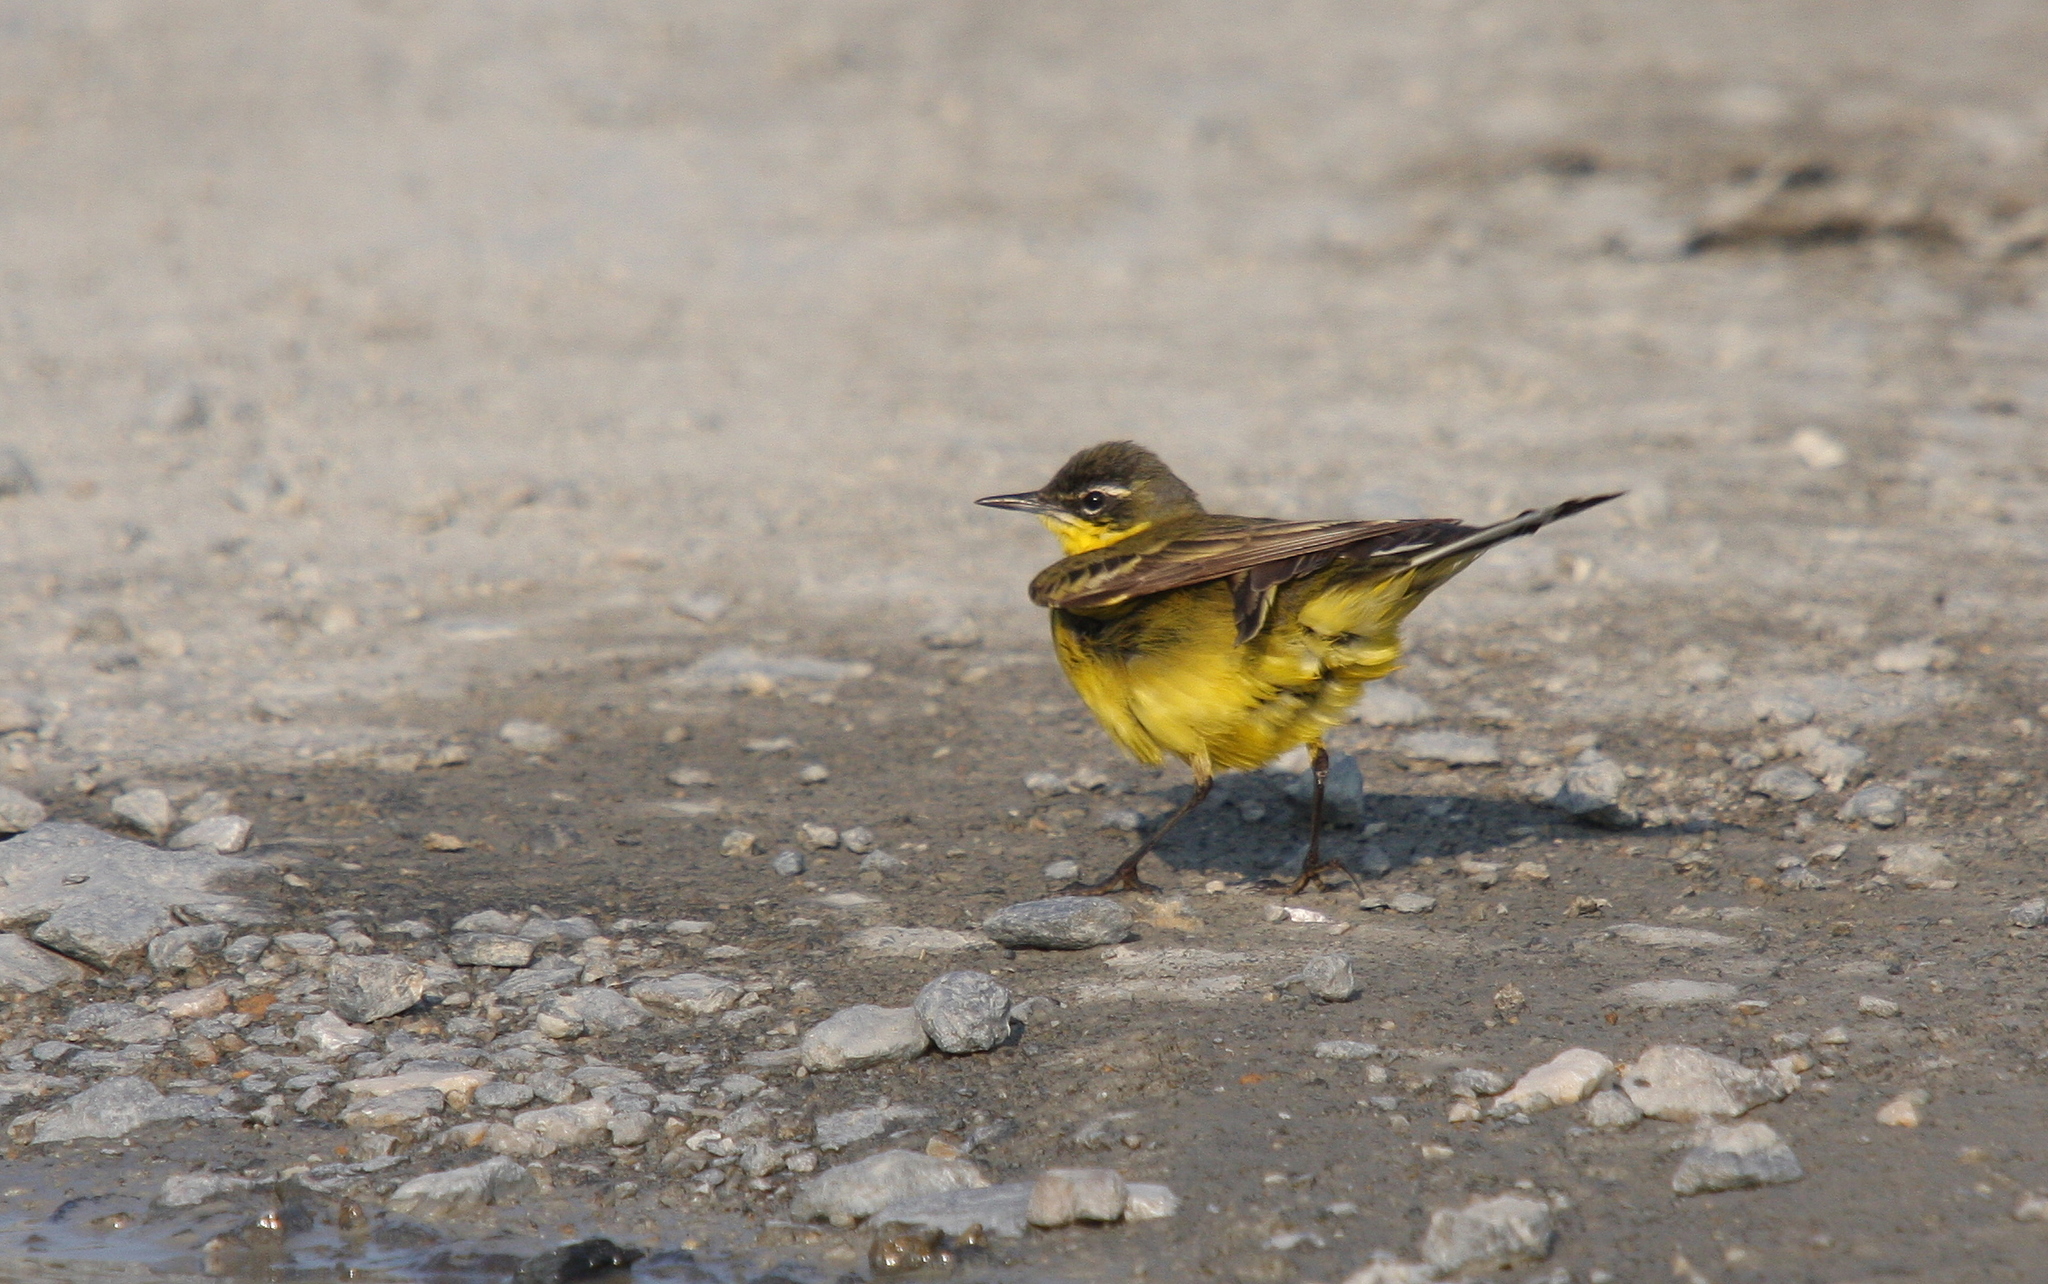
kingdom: Animalia
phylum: Chordata
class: Aves
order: Passeriformes
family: Motacillidae
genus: Motacilla
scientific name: Motacilla flava
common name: Western yellow wagtail
